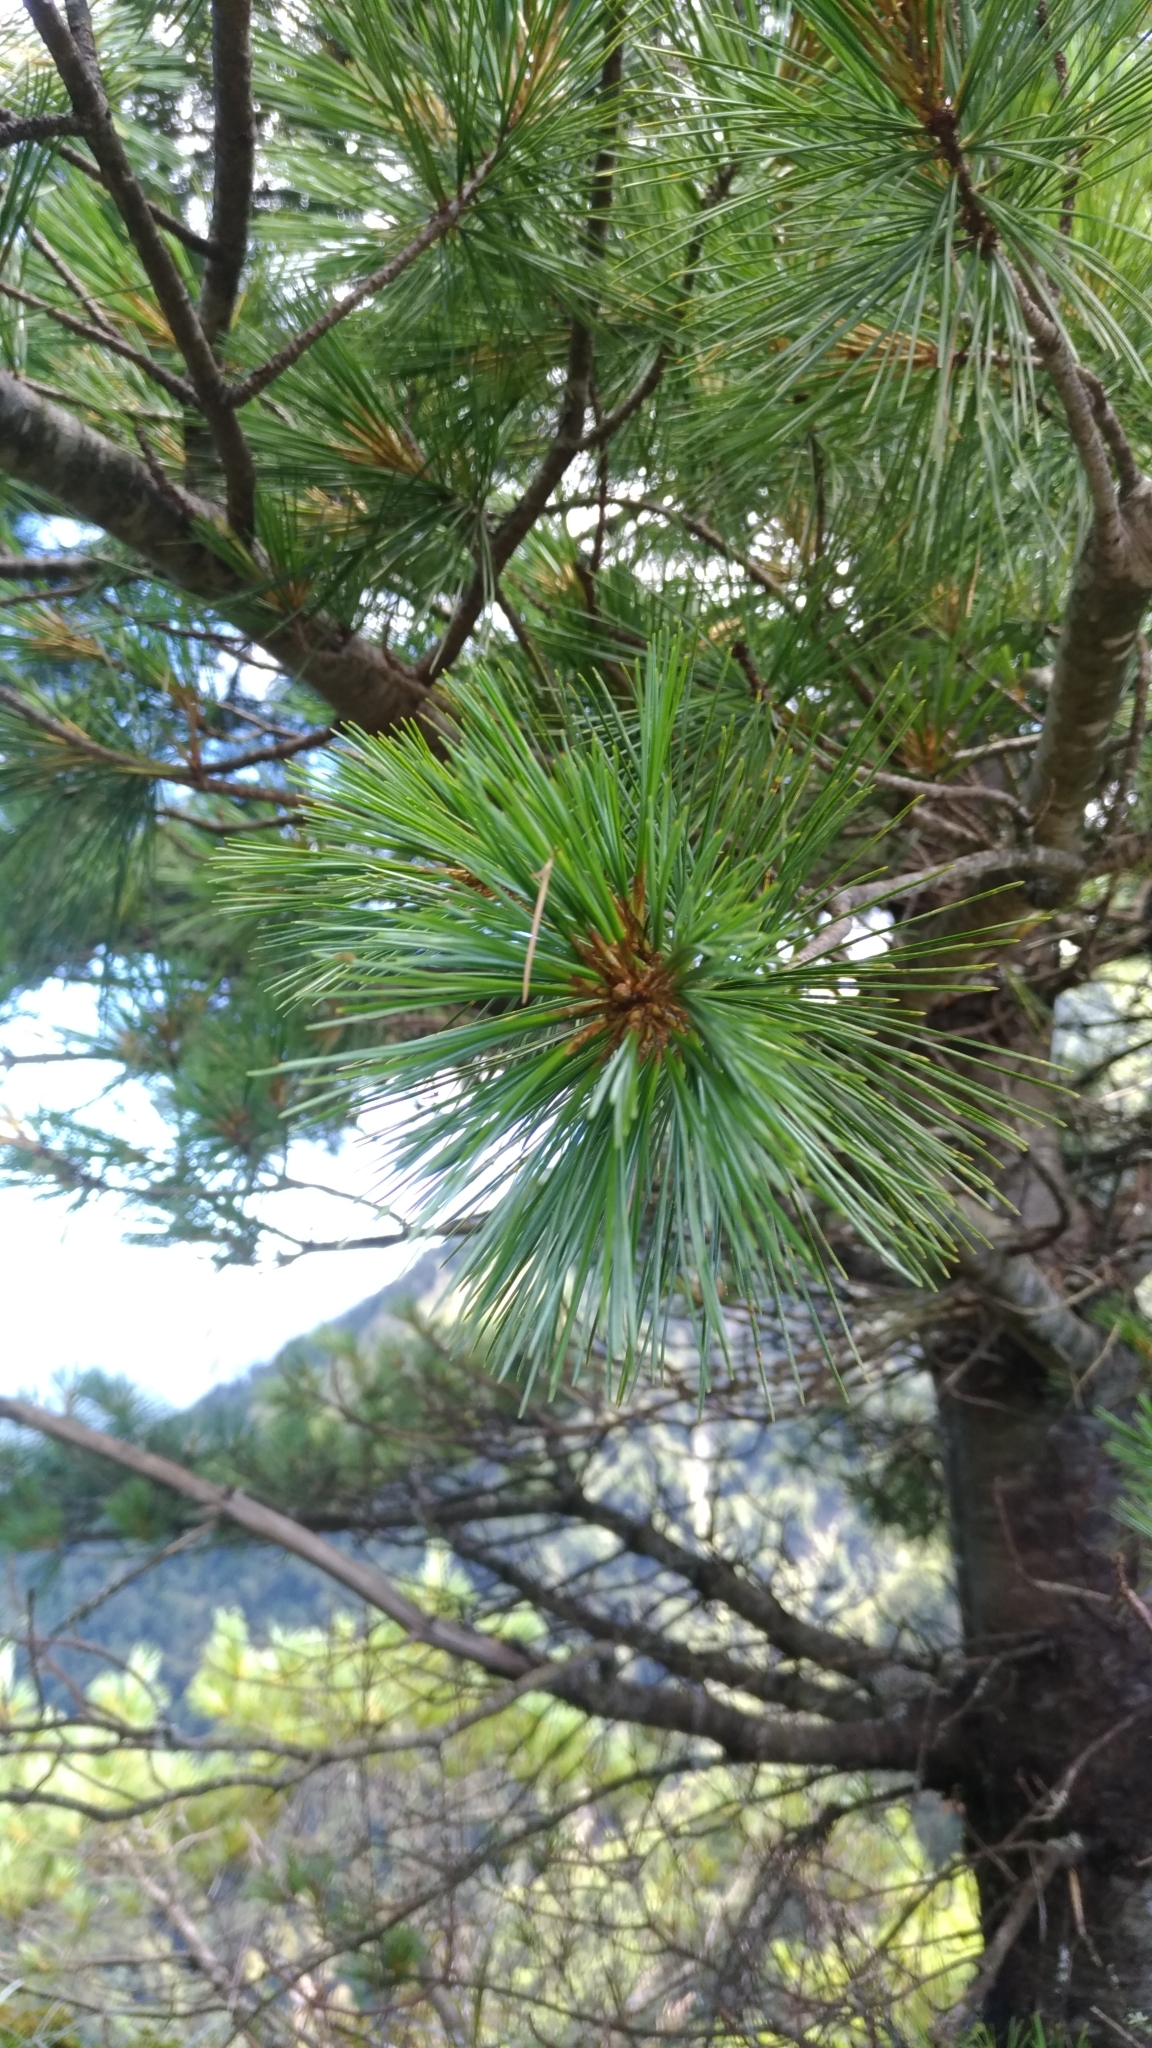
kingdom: Plantae
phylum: Tracheophyta
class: Pinopsida
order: Pinales
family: Pinaceae
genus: Pinus
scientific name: Pinus morrisonicola
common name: Taiwan white pine
